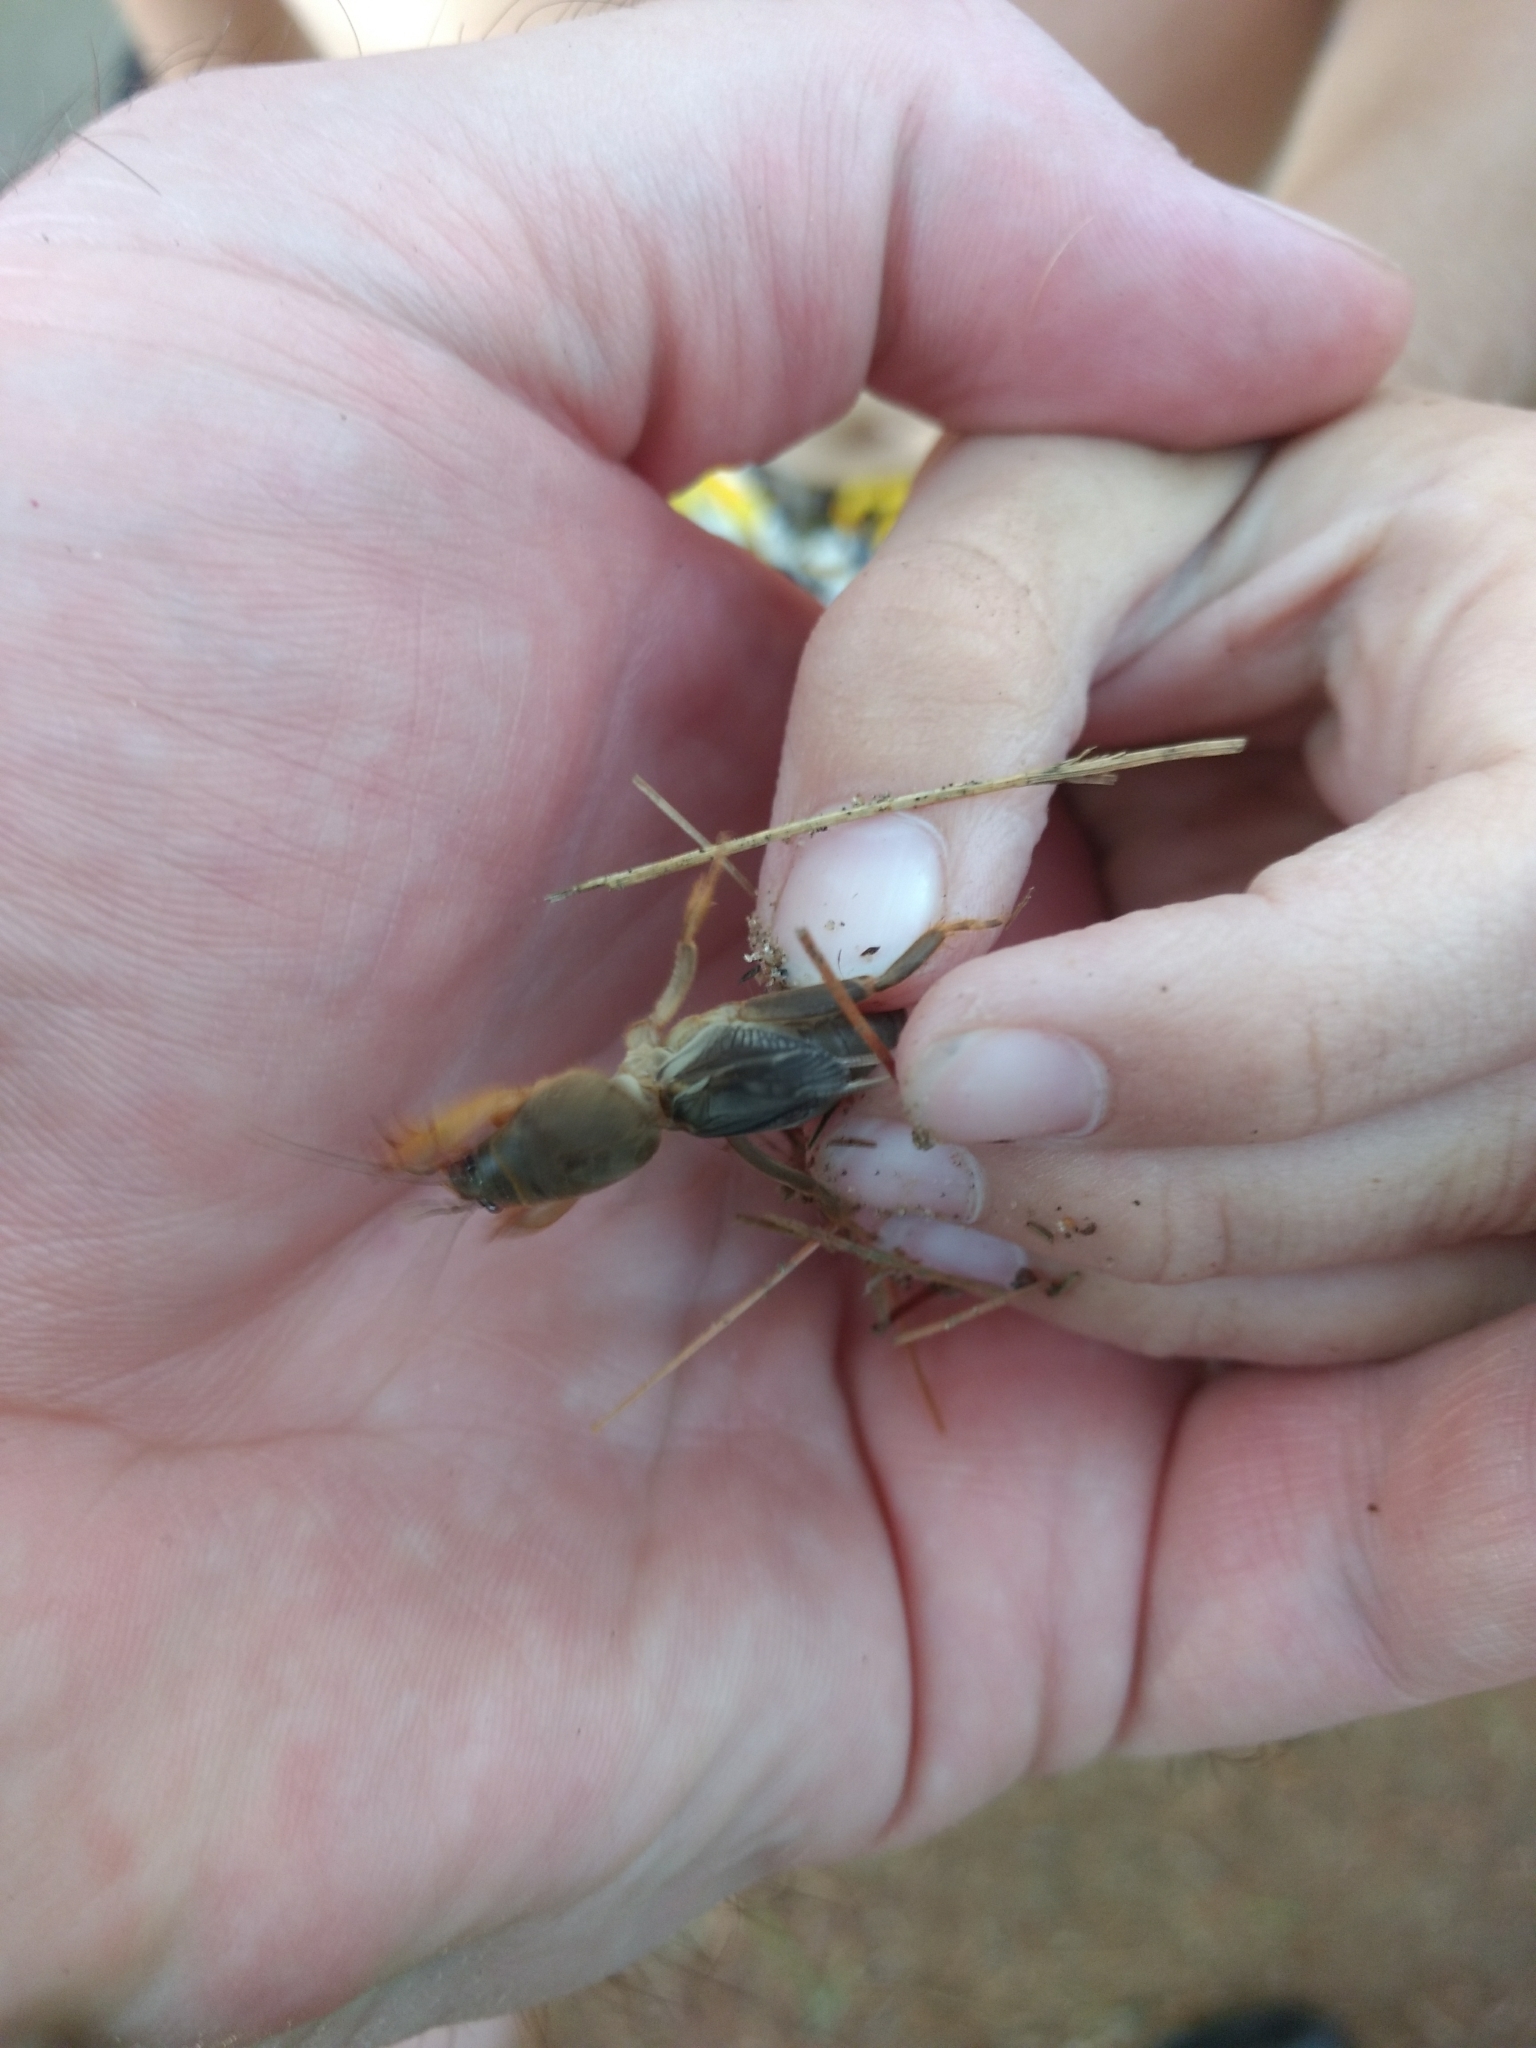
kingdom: Animalia
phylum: Arthropoda
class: Insecta
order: Orthoptera
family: Gryllotalpidae
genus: Neocurtilla
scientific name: Neocurtilla hexadactyla
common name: Northern mole cricket
